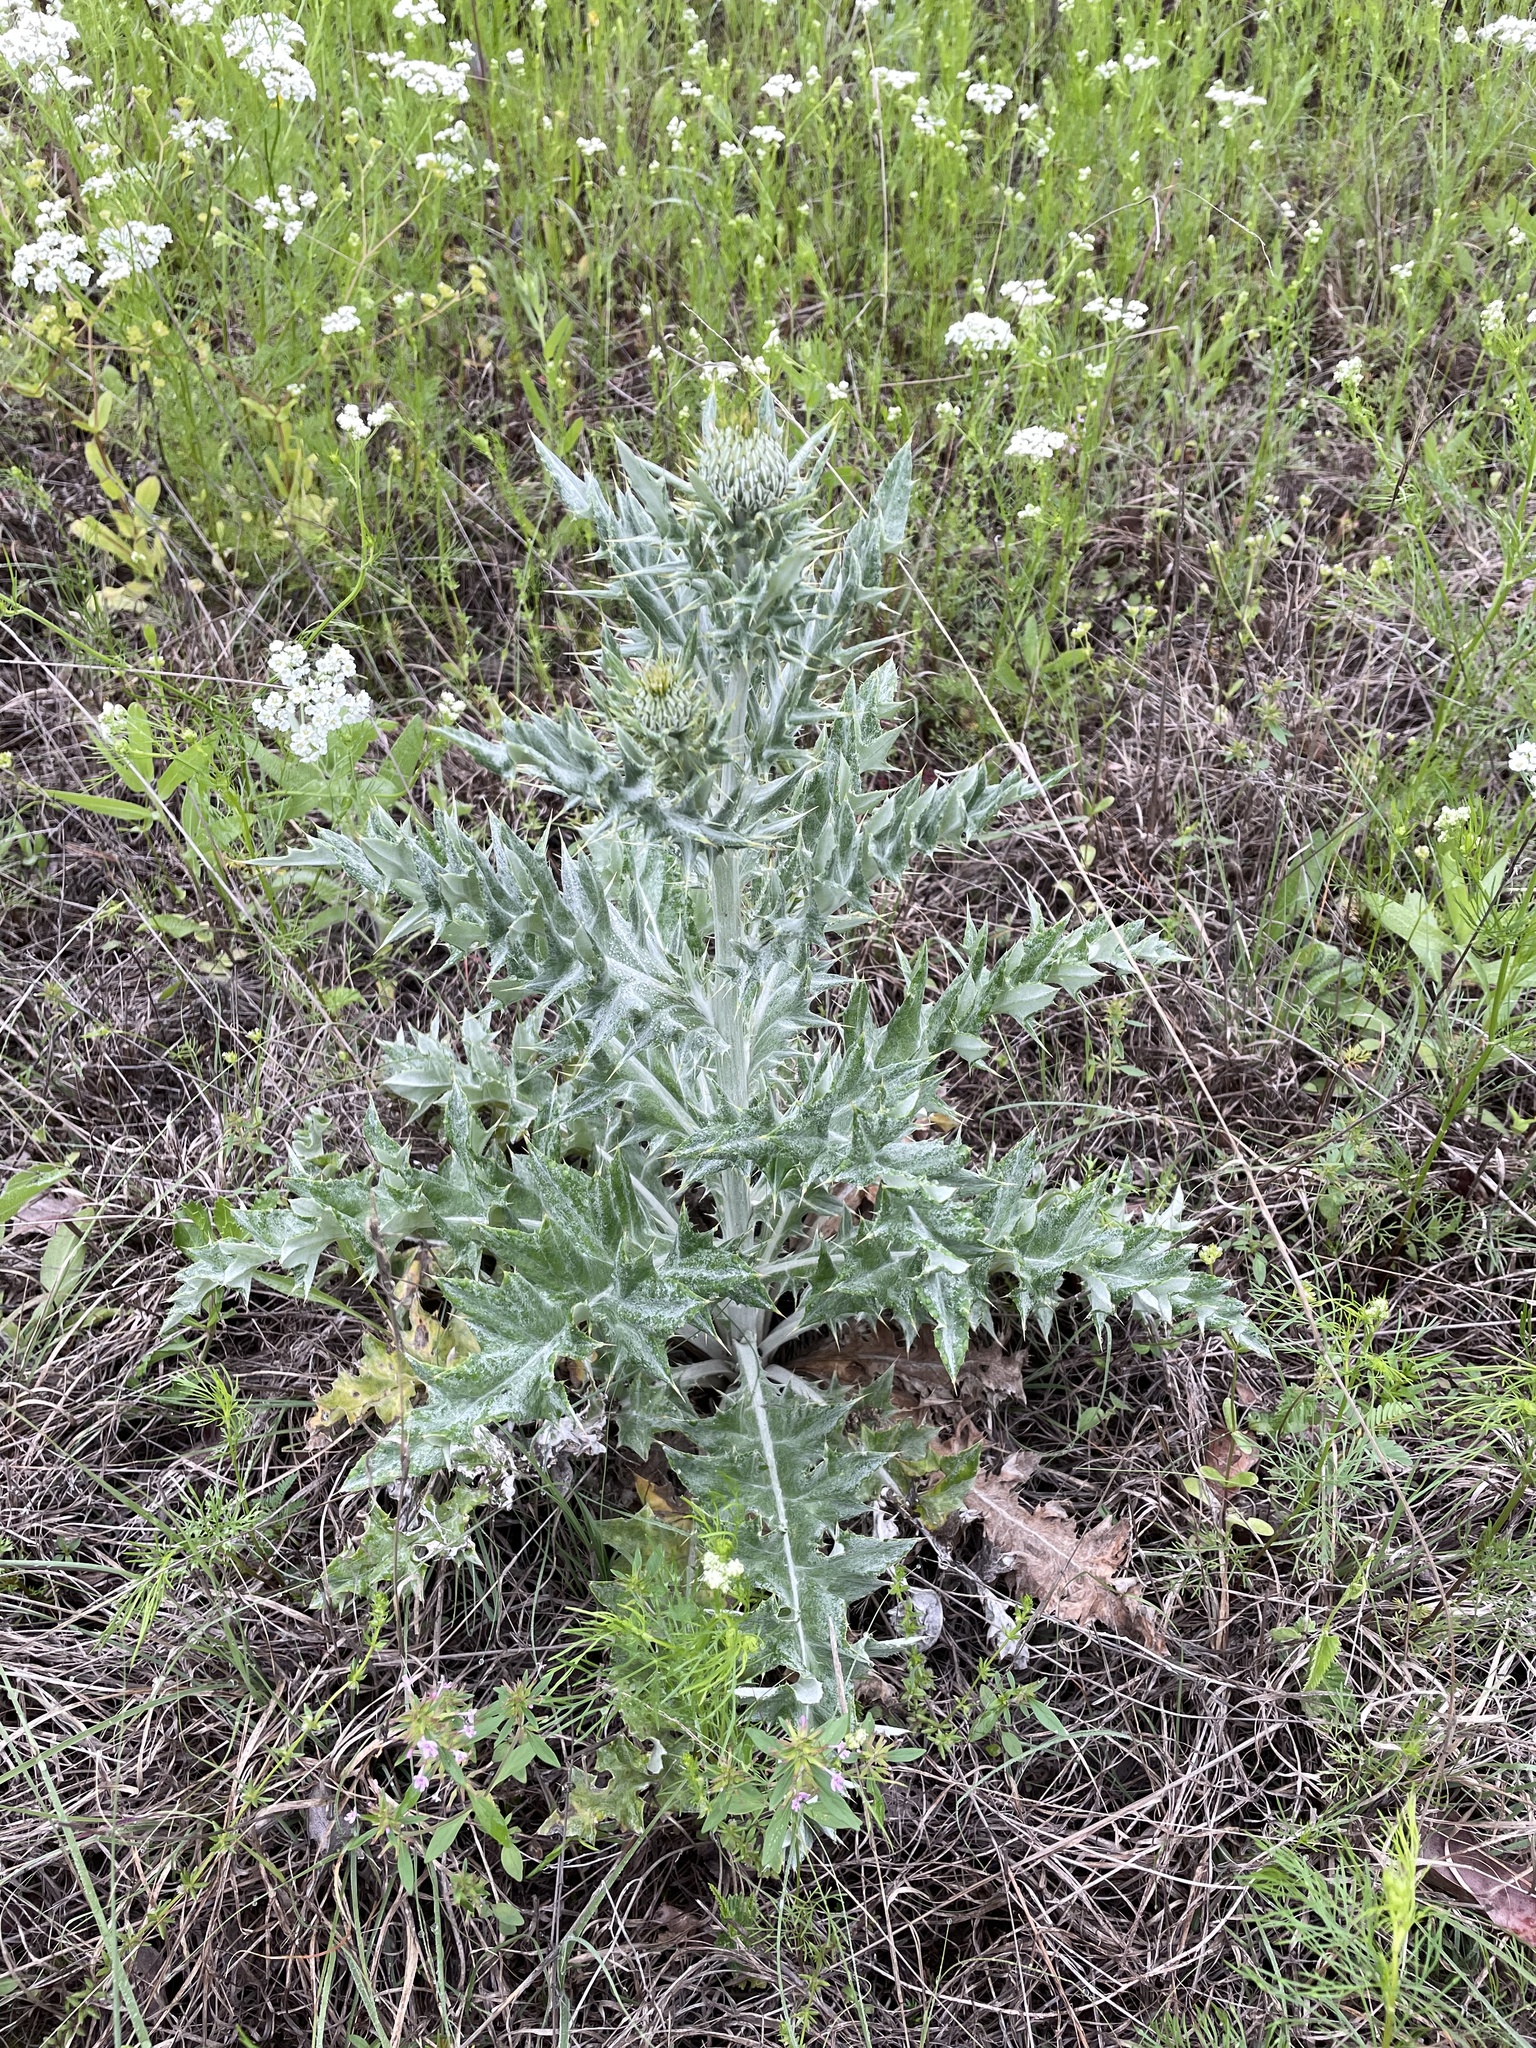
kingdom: Plantae
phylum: Tracheophyta
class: Magnoliopsida
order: Asterales
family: Asteraceae
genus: Cirsium
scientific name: Cirsium undulatum
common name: Pasture thistle
